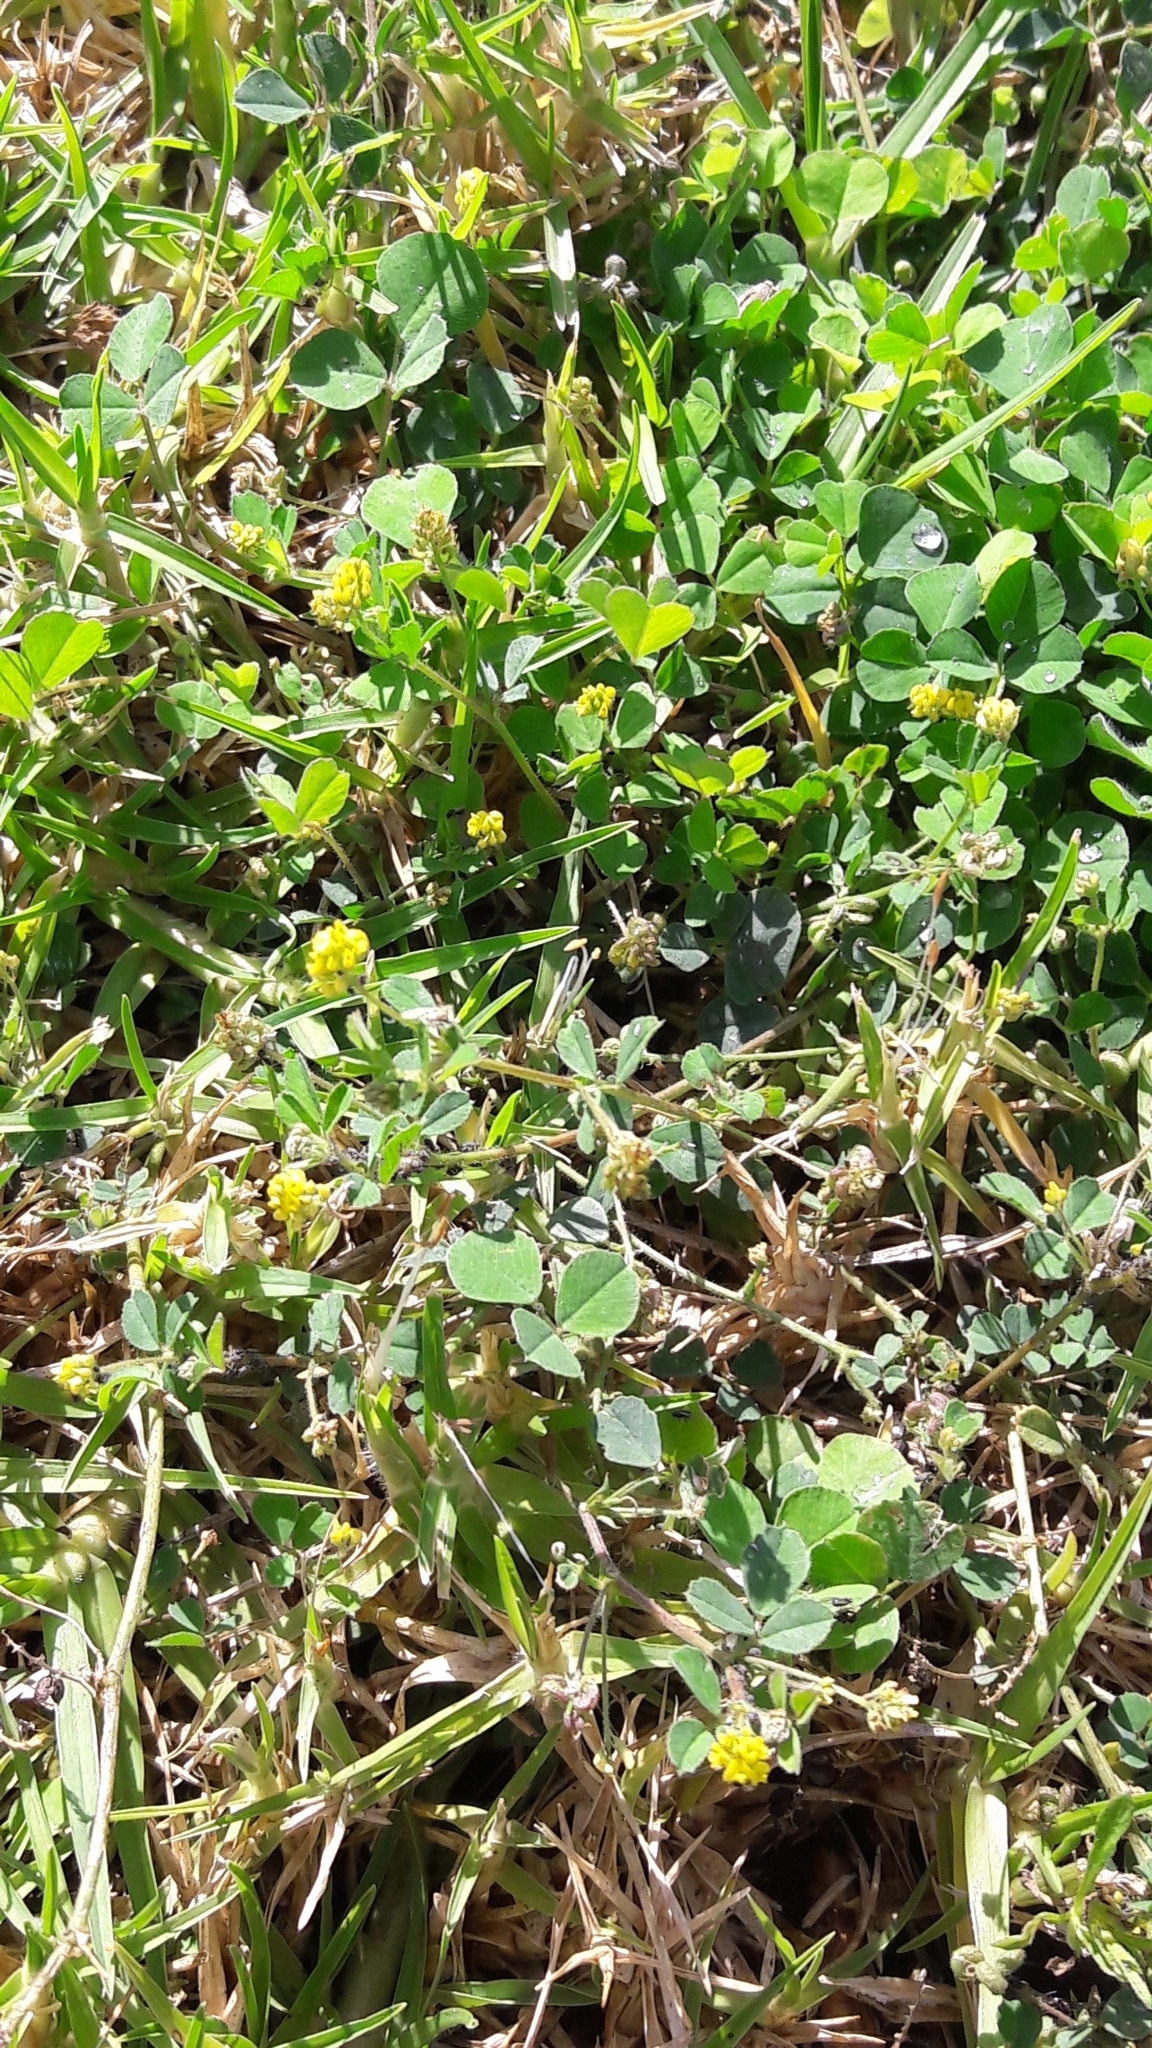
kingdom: Plantae
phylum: Tracheophyta
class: Magnoliopsida
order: Fabales
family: Fabaceae
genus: Medicago
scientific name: Medicago lupulina
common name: Black medick
